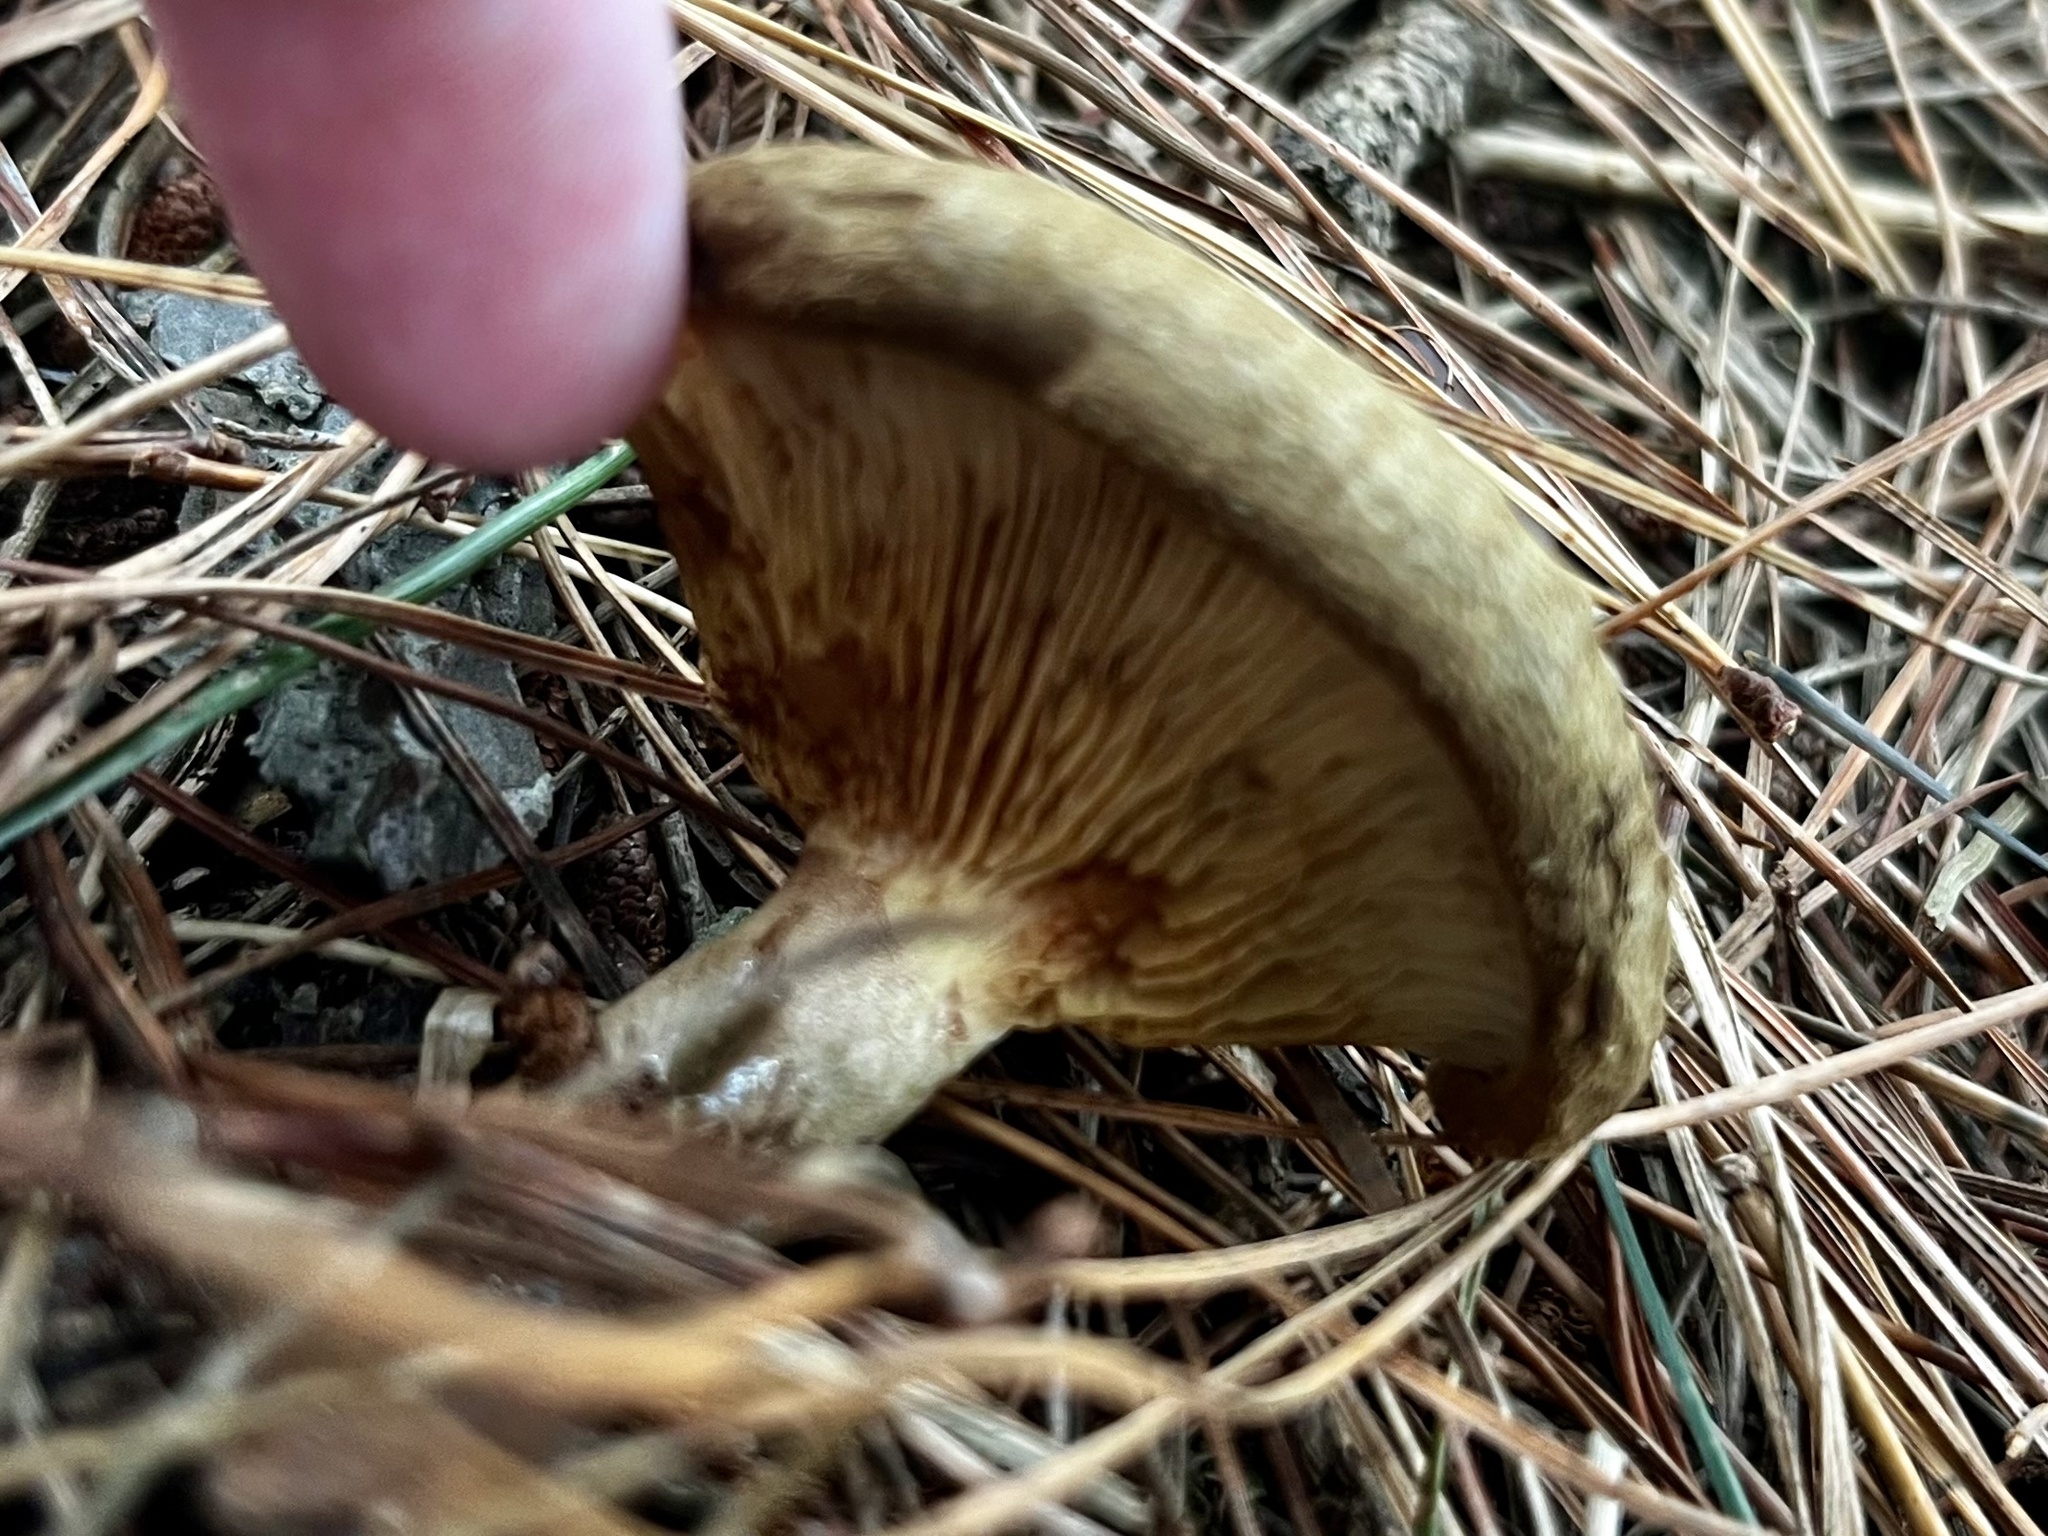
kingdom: Fungi
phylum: Basidiomycota
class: Agaricomycetes
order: Boletales
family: Paxillaceae
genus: Paxillus
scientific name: Paxillus involutus
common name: Brown roll rim
